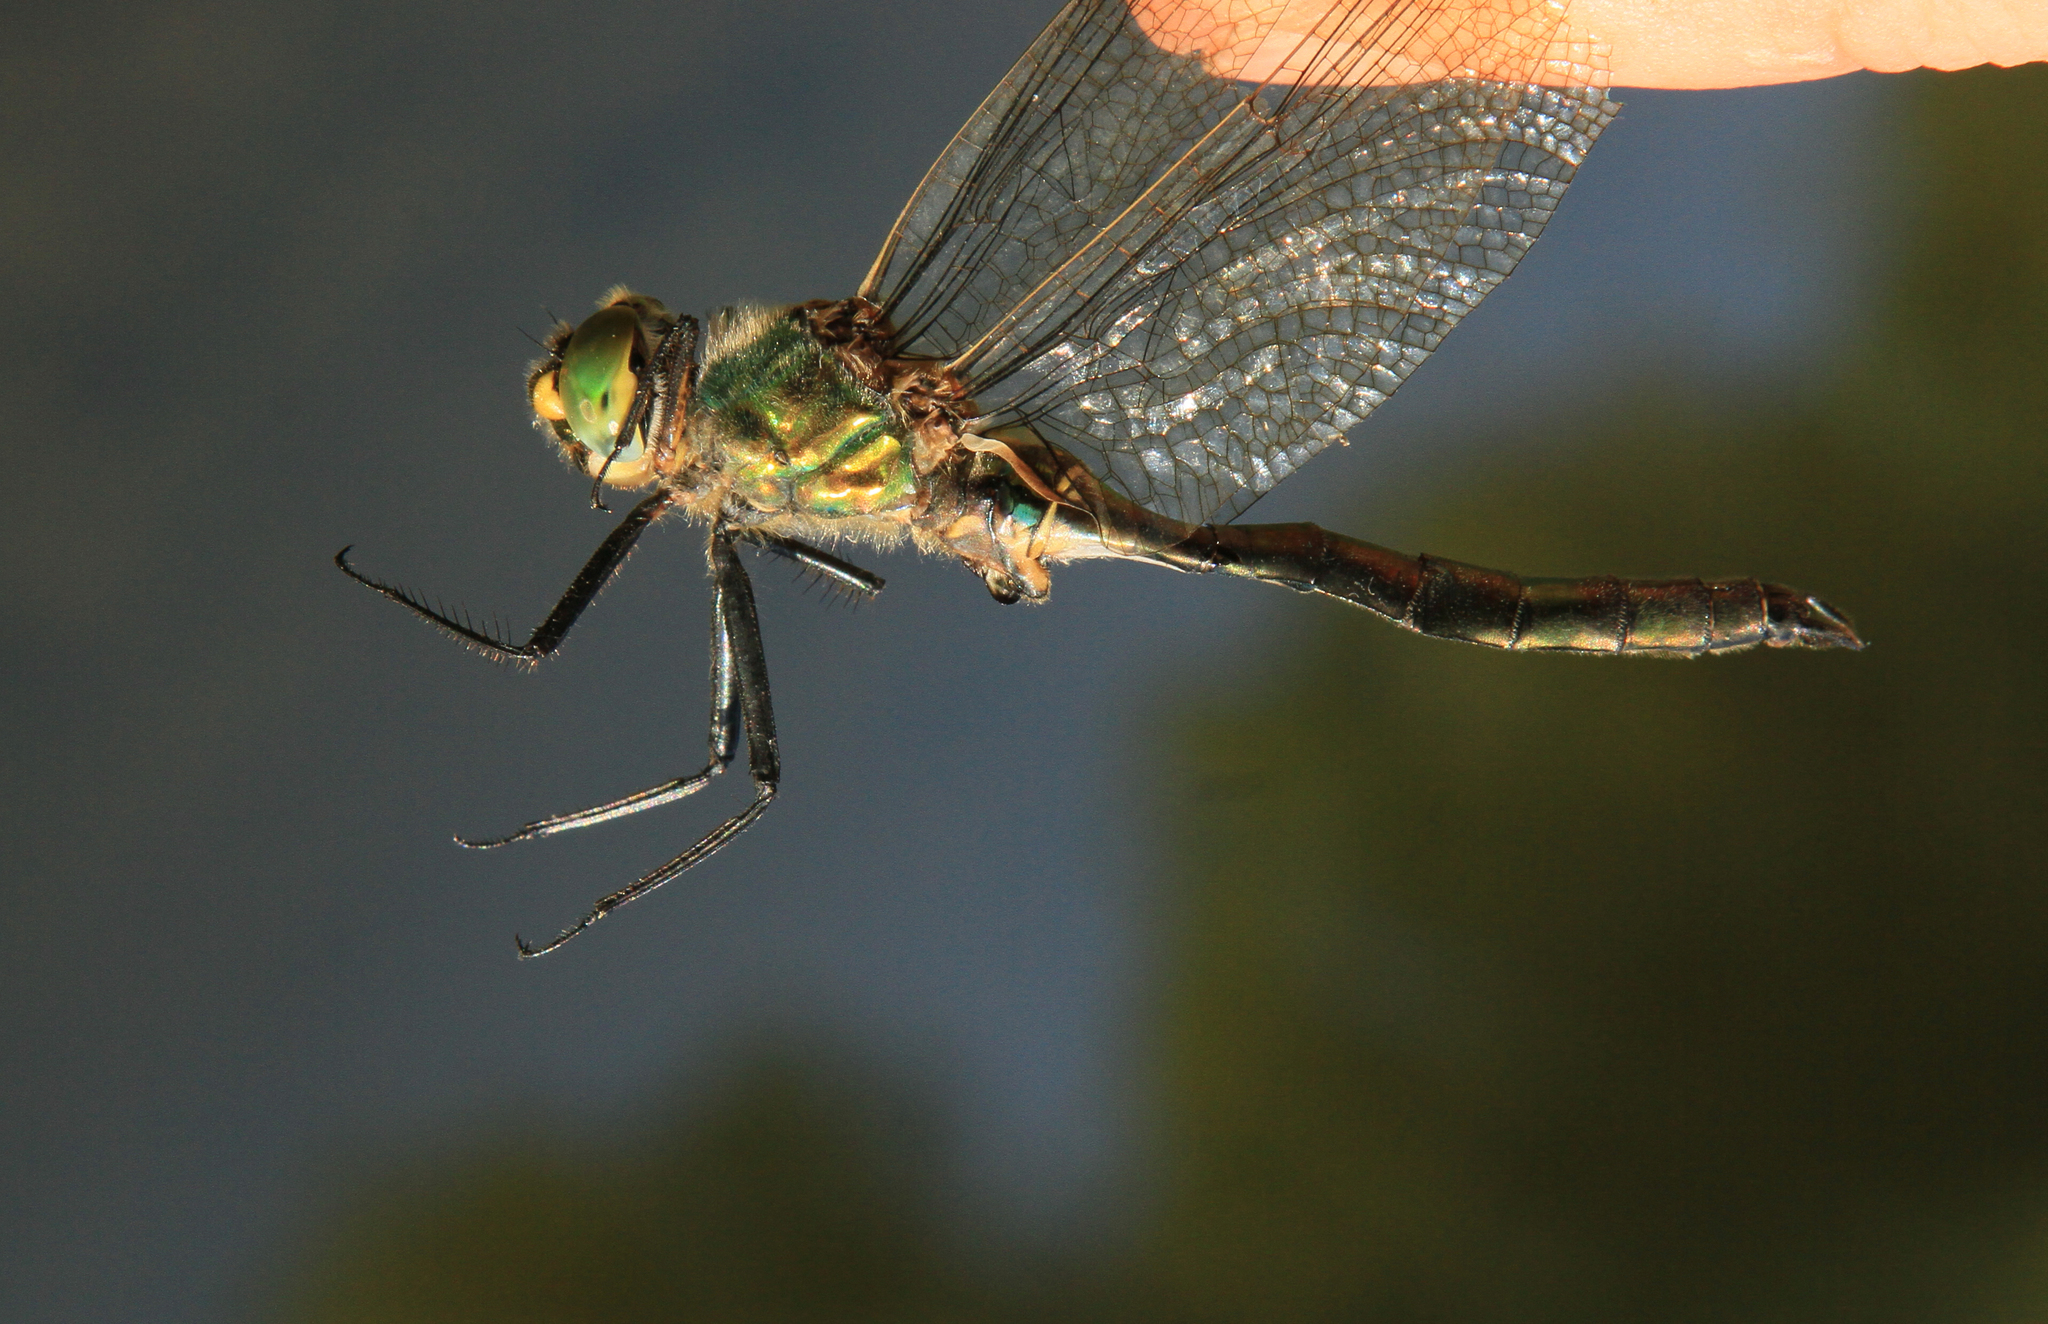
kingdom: Animalia
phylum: Arthropoda
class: Insecta
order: Odonata
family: Corduliidae
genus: Somatochlora
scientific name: Somatochlora metallica
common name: Brilliant emerald
